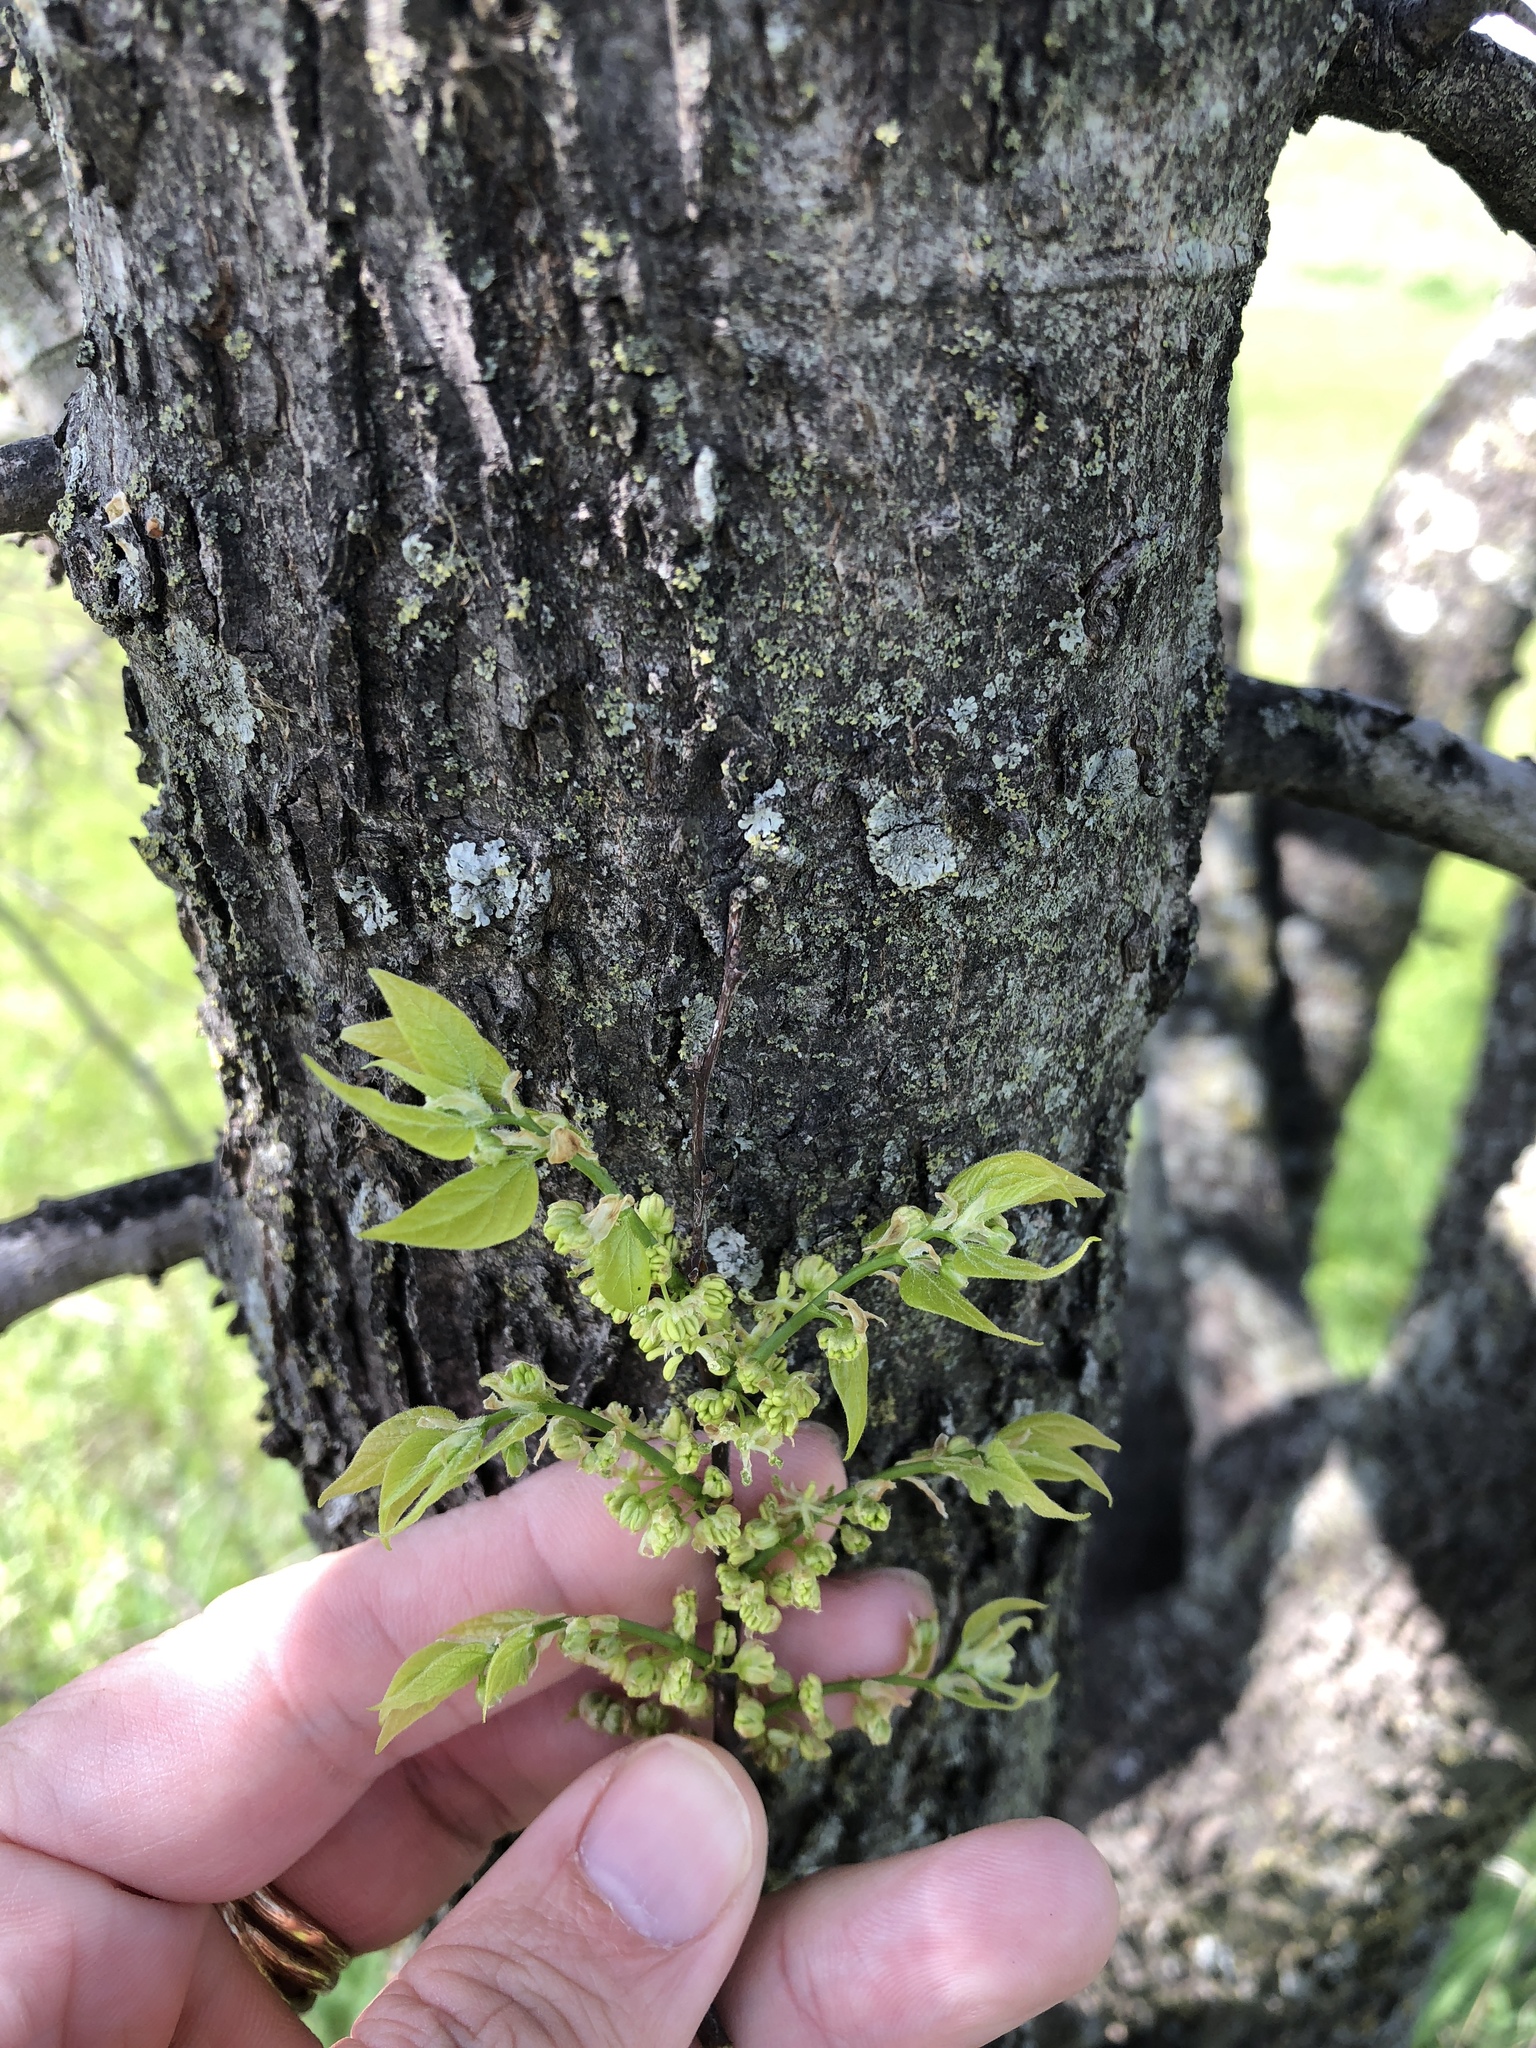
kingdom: Plantae
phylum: Tracheophyta
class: Magnoliopsida
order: Rosales
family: Cannabaceae
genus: Celtis
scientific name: Celtis laevigata
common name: Sugarberry
